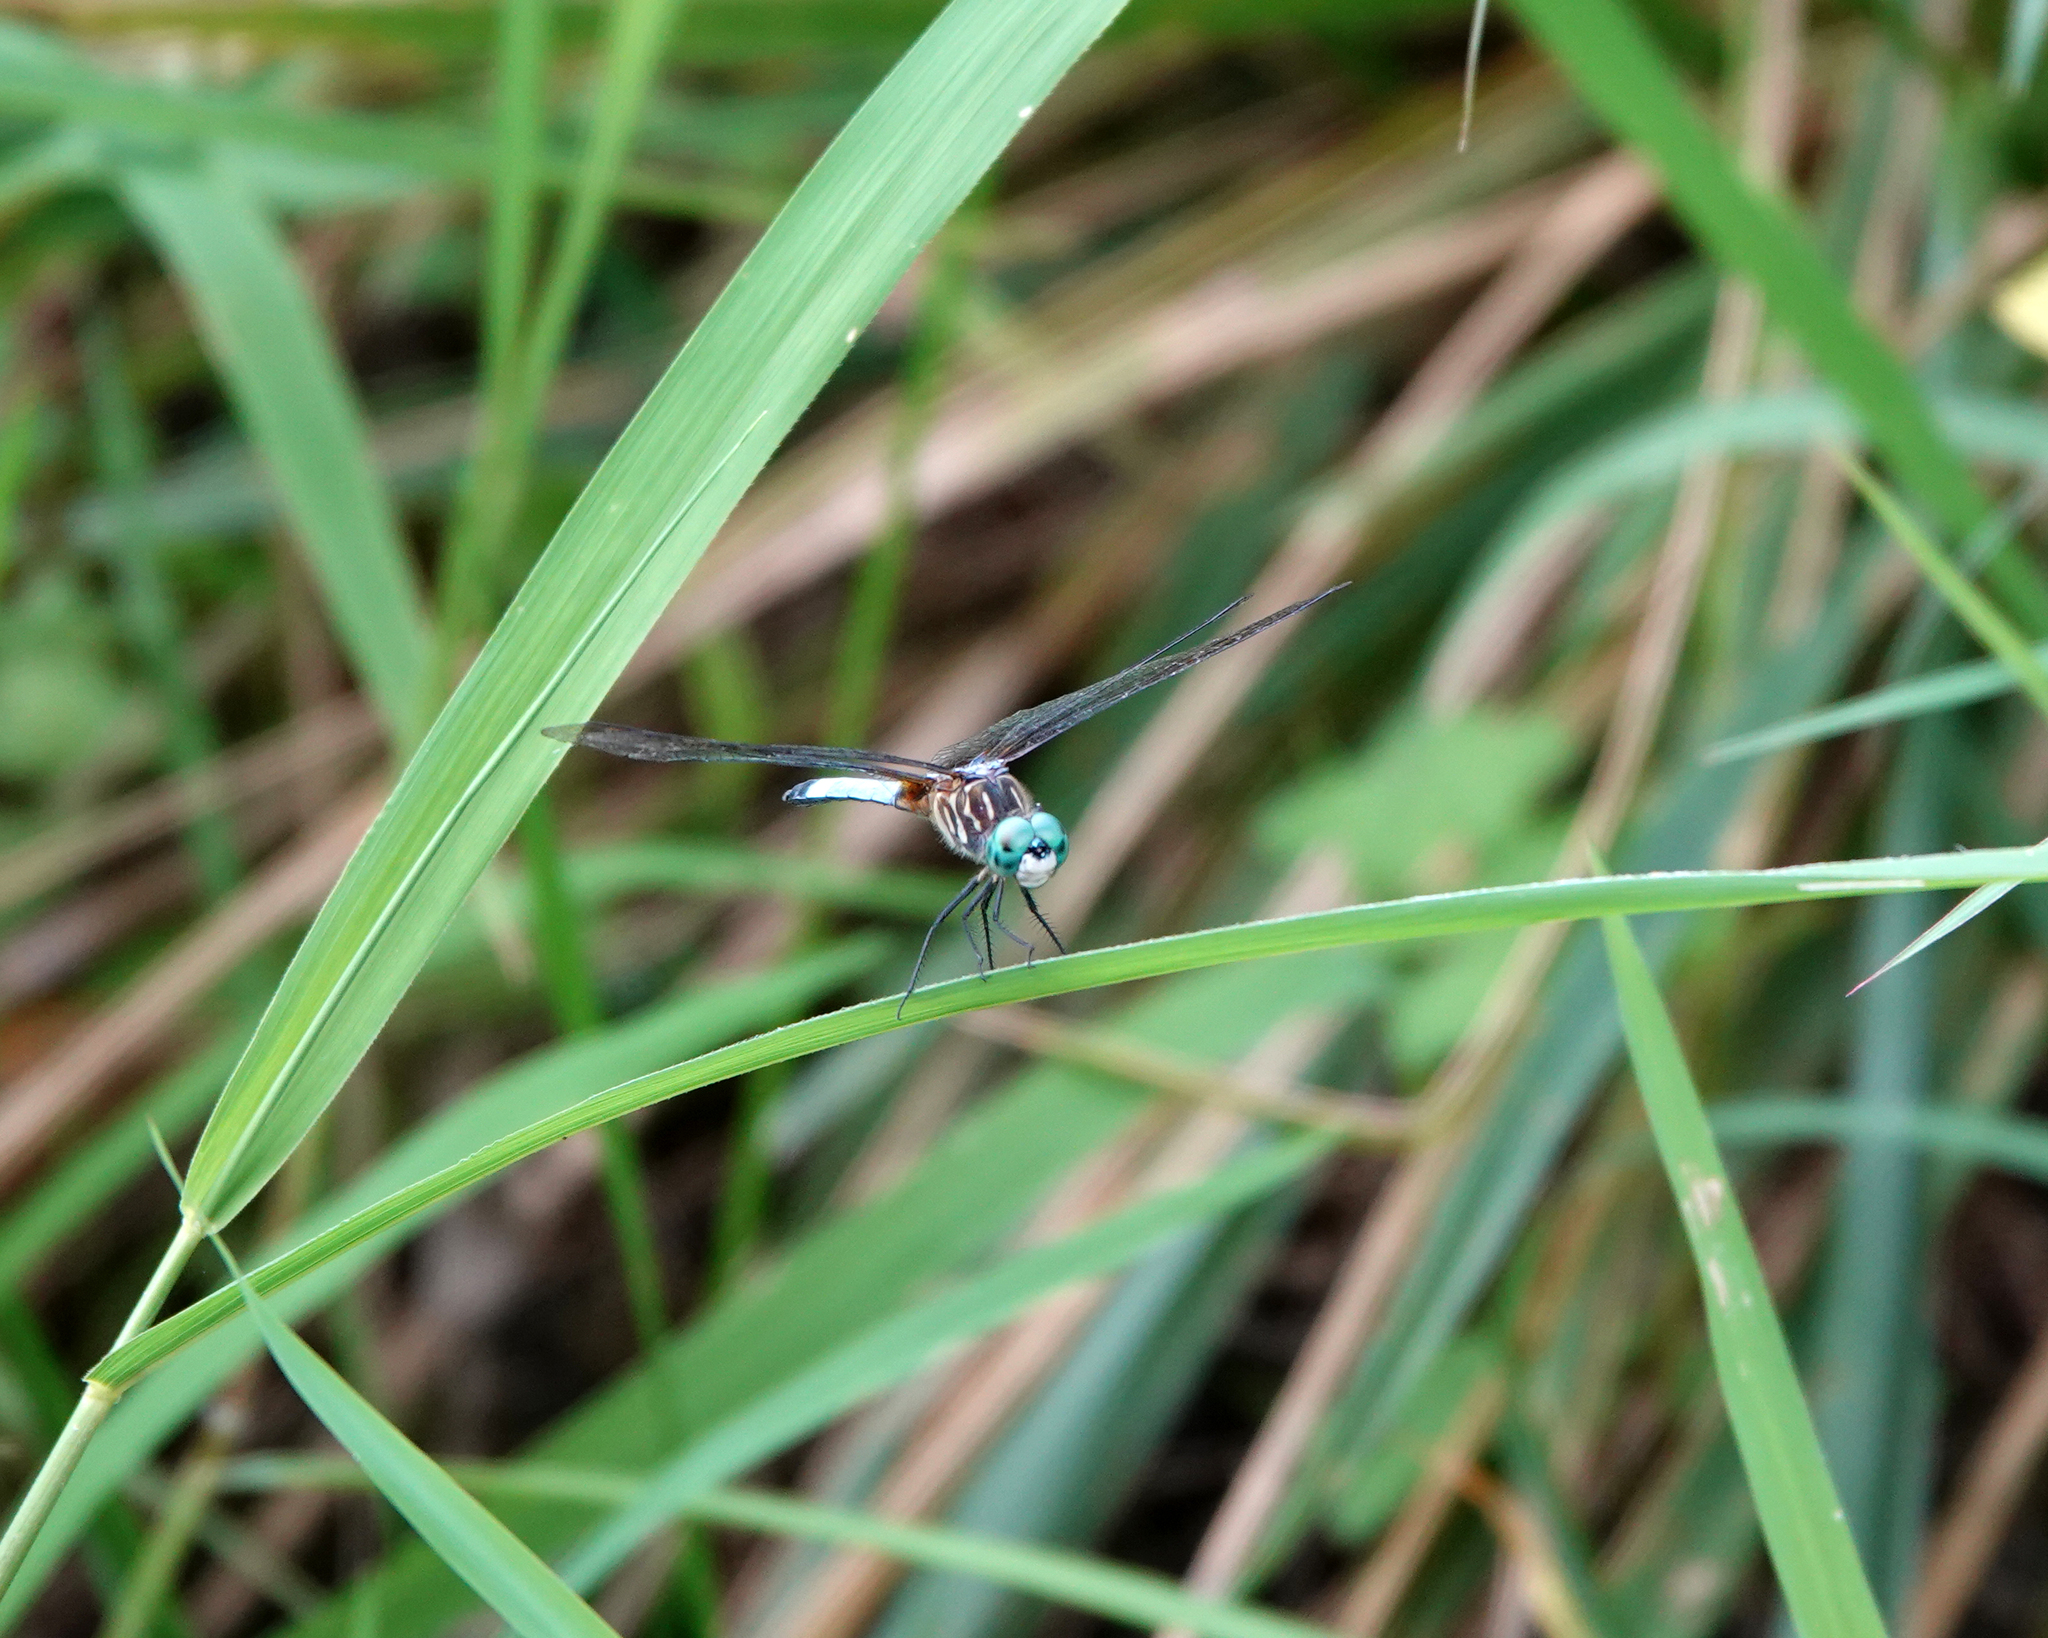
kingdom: Animalia
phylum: Arthropoda
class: Insecta
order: Odonata
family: Libellulidae
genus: Pachydiplax
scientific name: Pachydiplax longipennis
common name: Blue dasher
